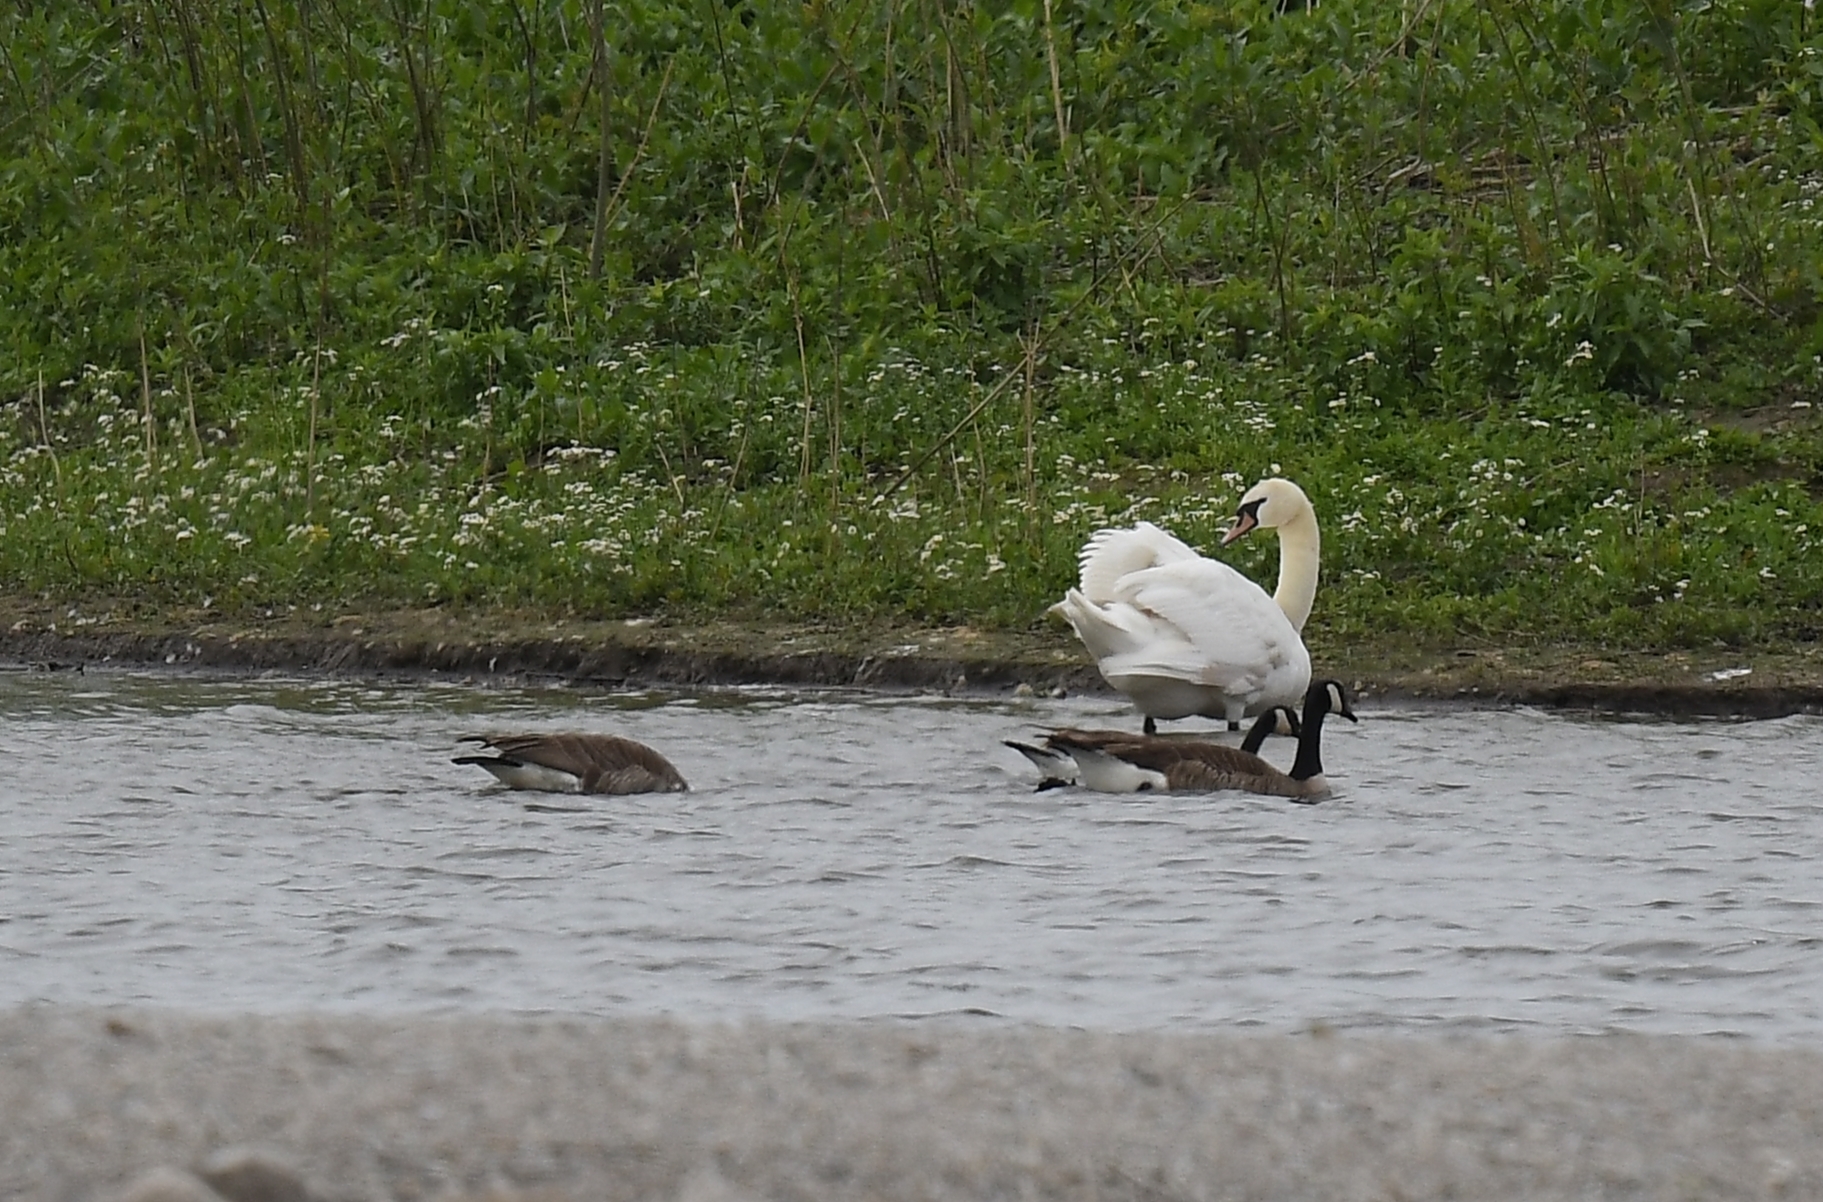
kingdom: Animalia
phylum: Chordata
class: Aves
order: Anseriformes
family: Anatidae
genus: Cygnus
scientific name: Cygnus olor
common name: Mute swan
